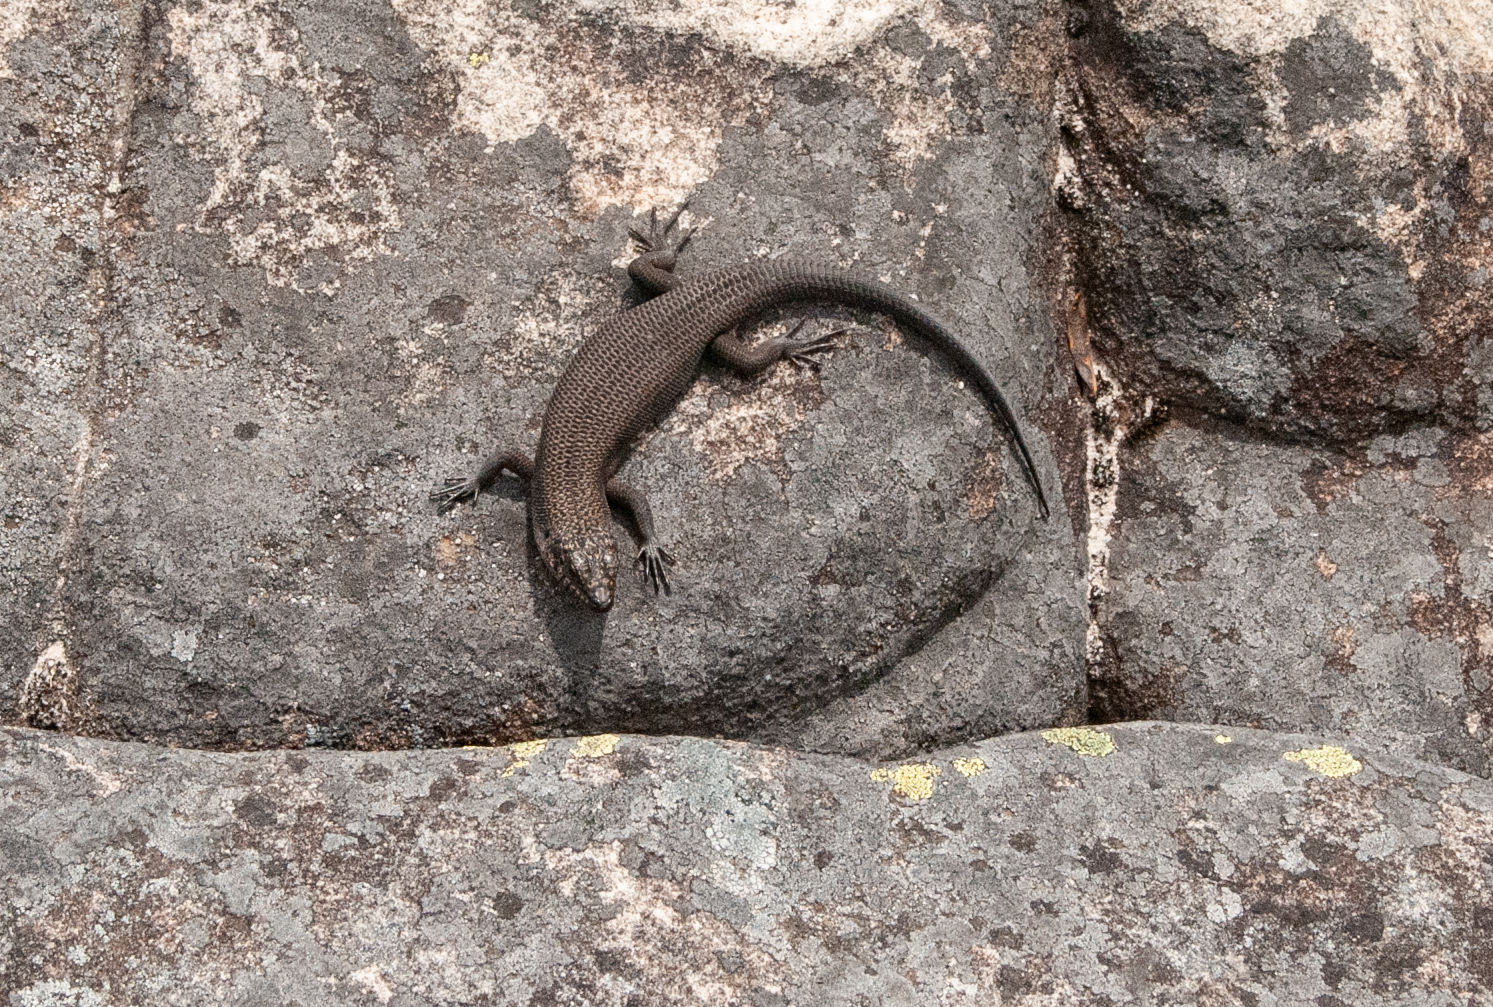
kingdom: Animalia
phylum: Chordata
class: Squamata
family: Scincidae
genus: Egernia
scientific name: Egernia saxatilis
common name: Black crevice-skink
